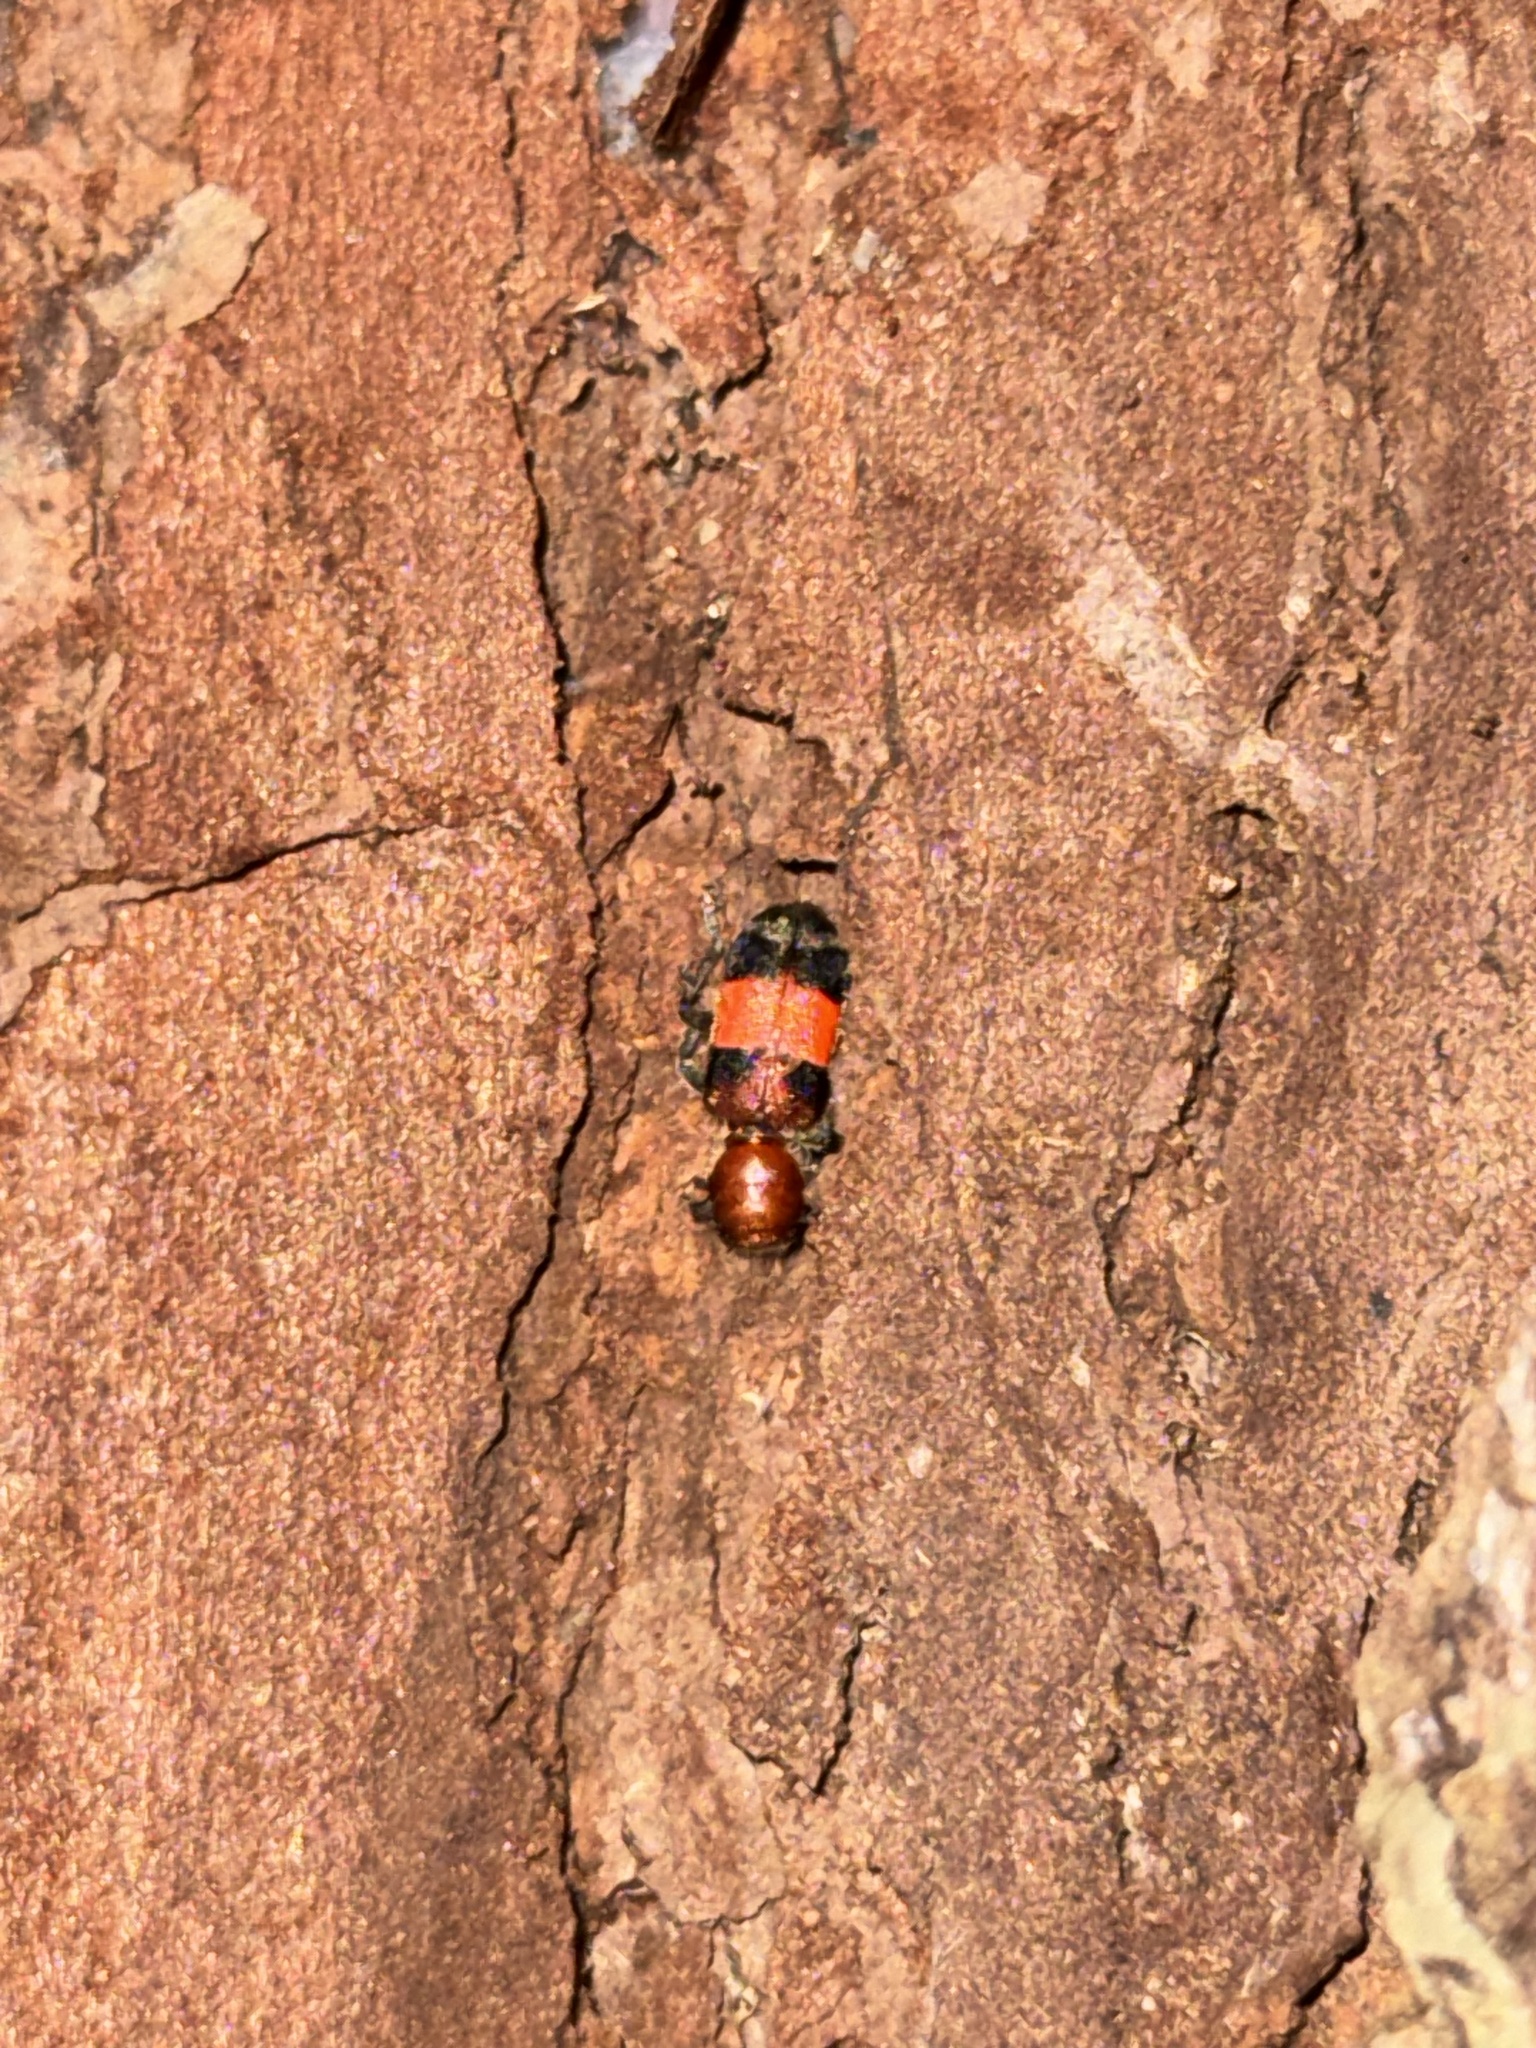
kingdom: Animalia
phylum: Arthropoda
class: Insecta
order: Coleoptera
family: Cleridae
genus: Enoclerus
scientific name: Enoclerus ichneumoneus
